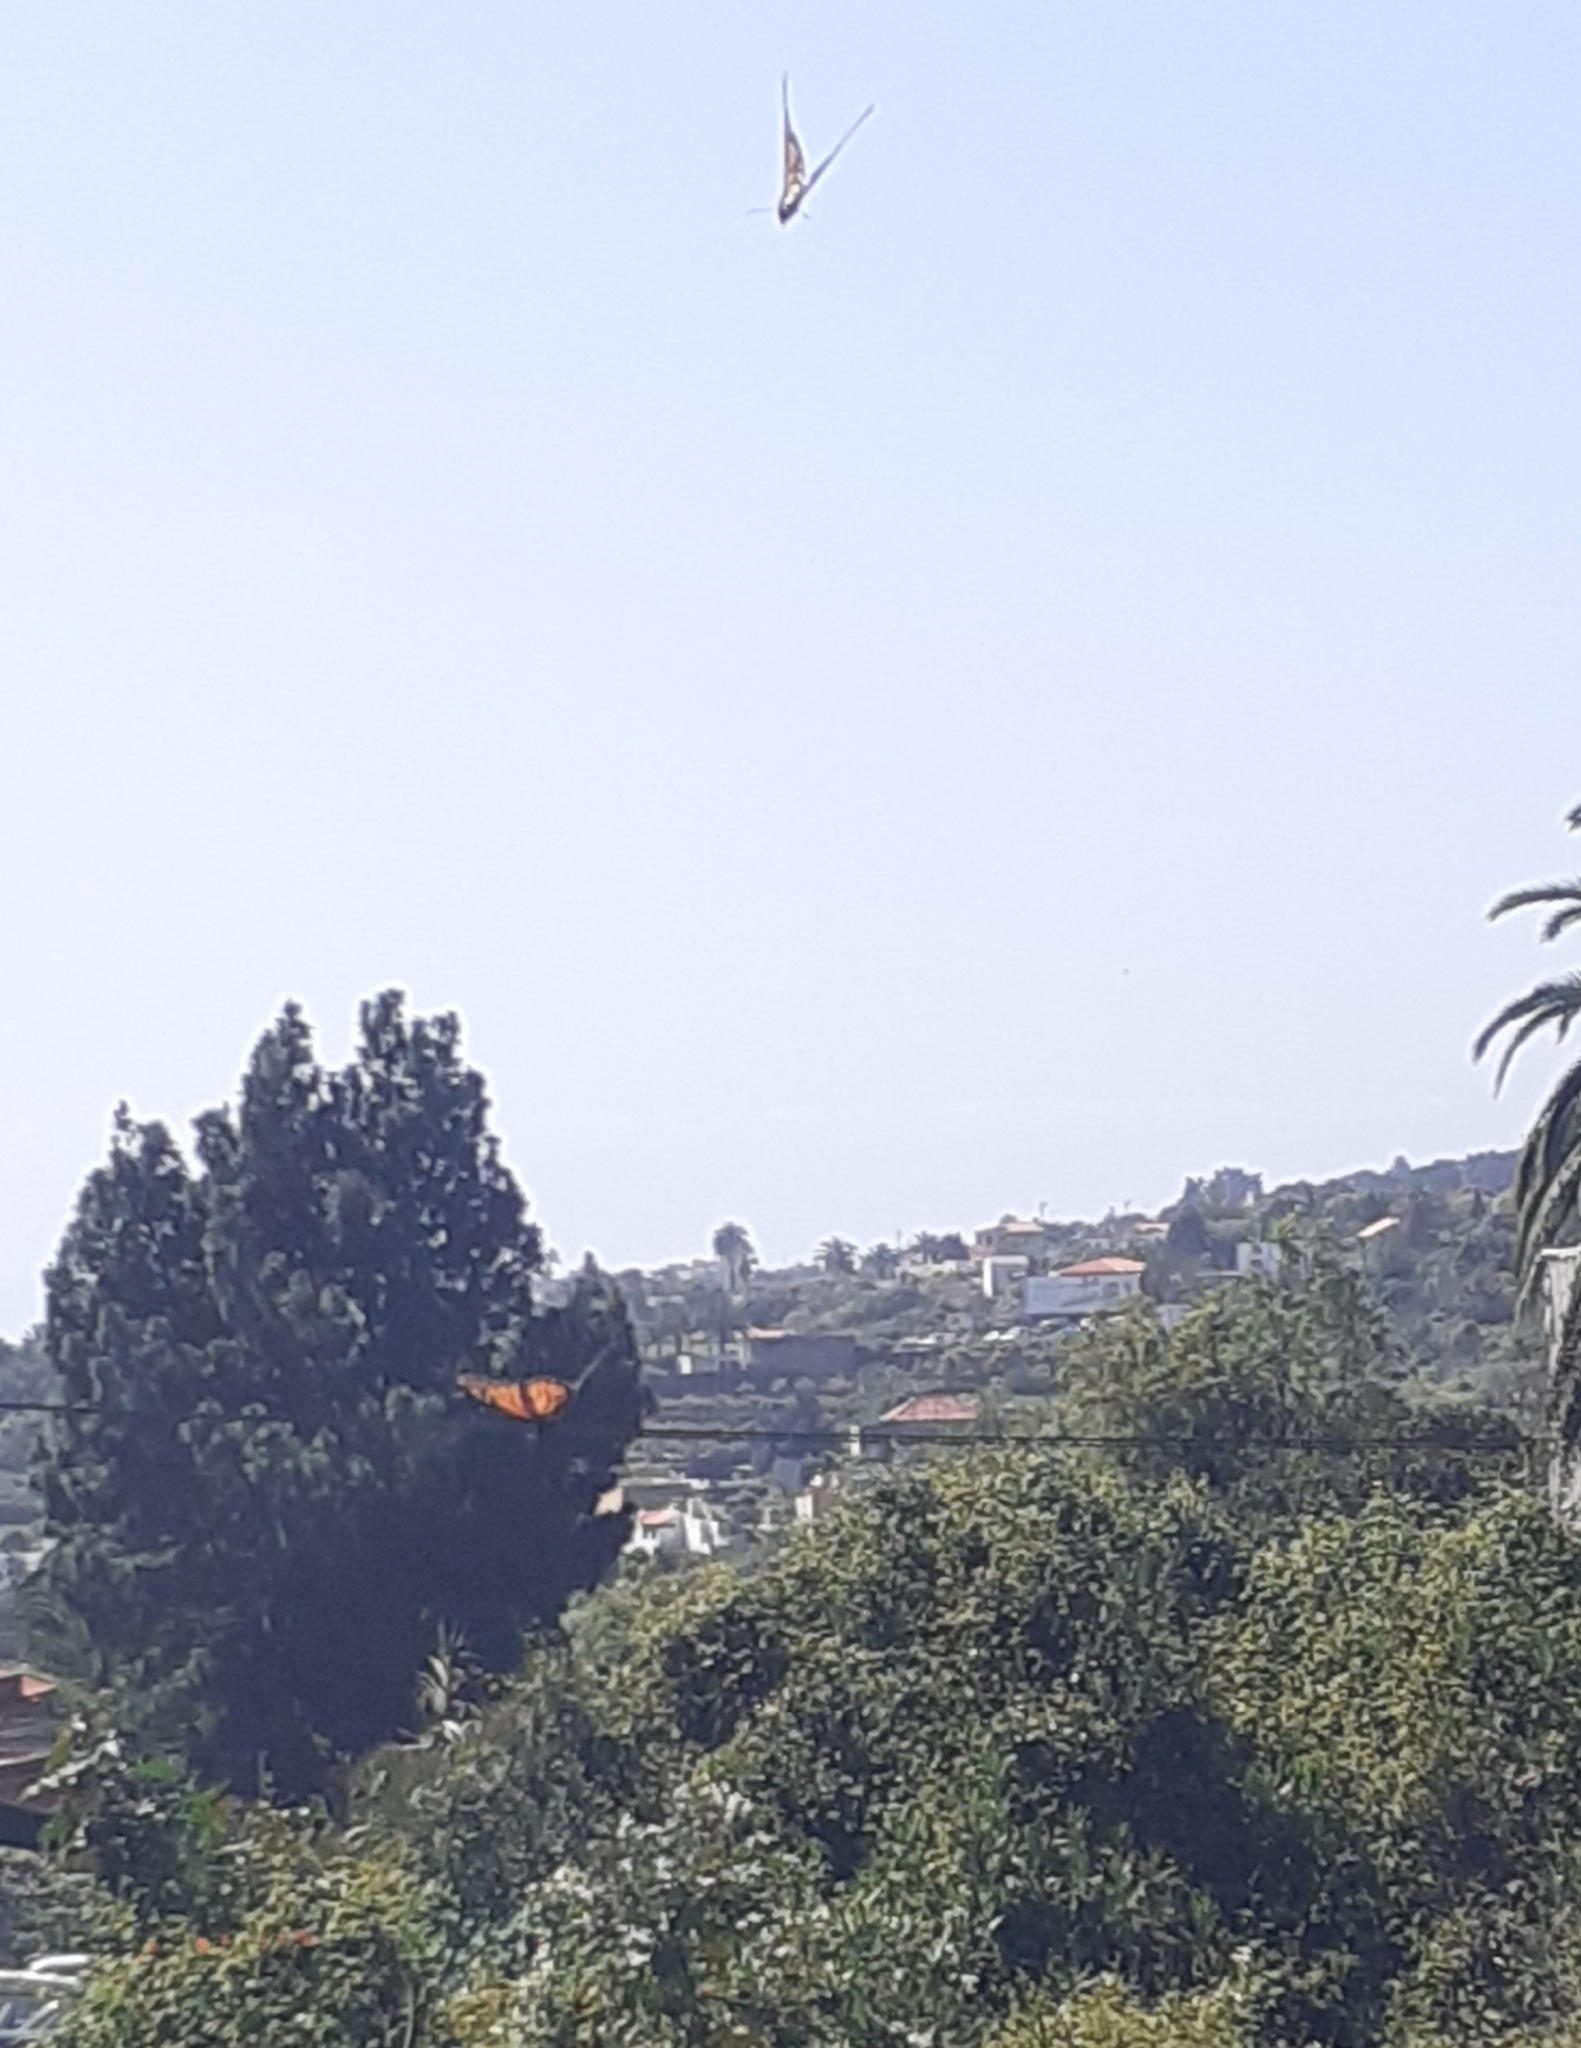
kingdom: Animalia
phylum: Arthropoda
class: Insecta
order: Lepidoptera
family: Nymphalidae
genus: Danaus
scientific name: Danaus plexippus
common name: Monarch
